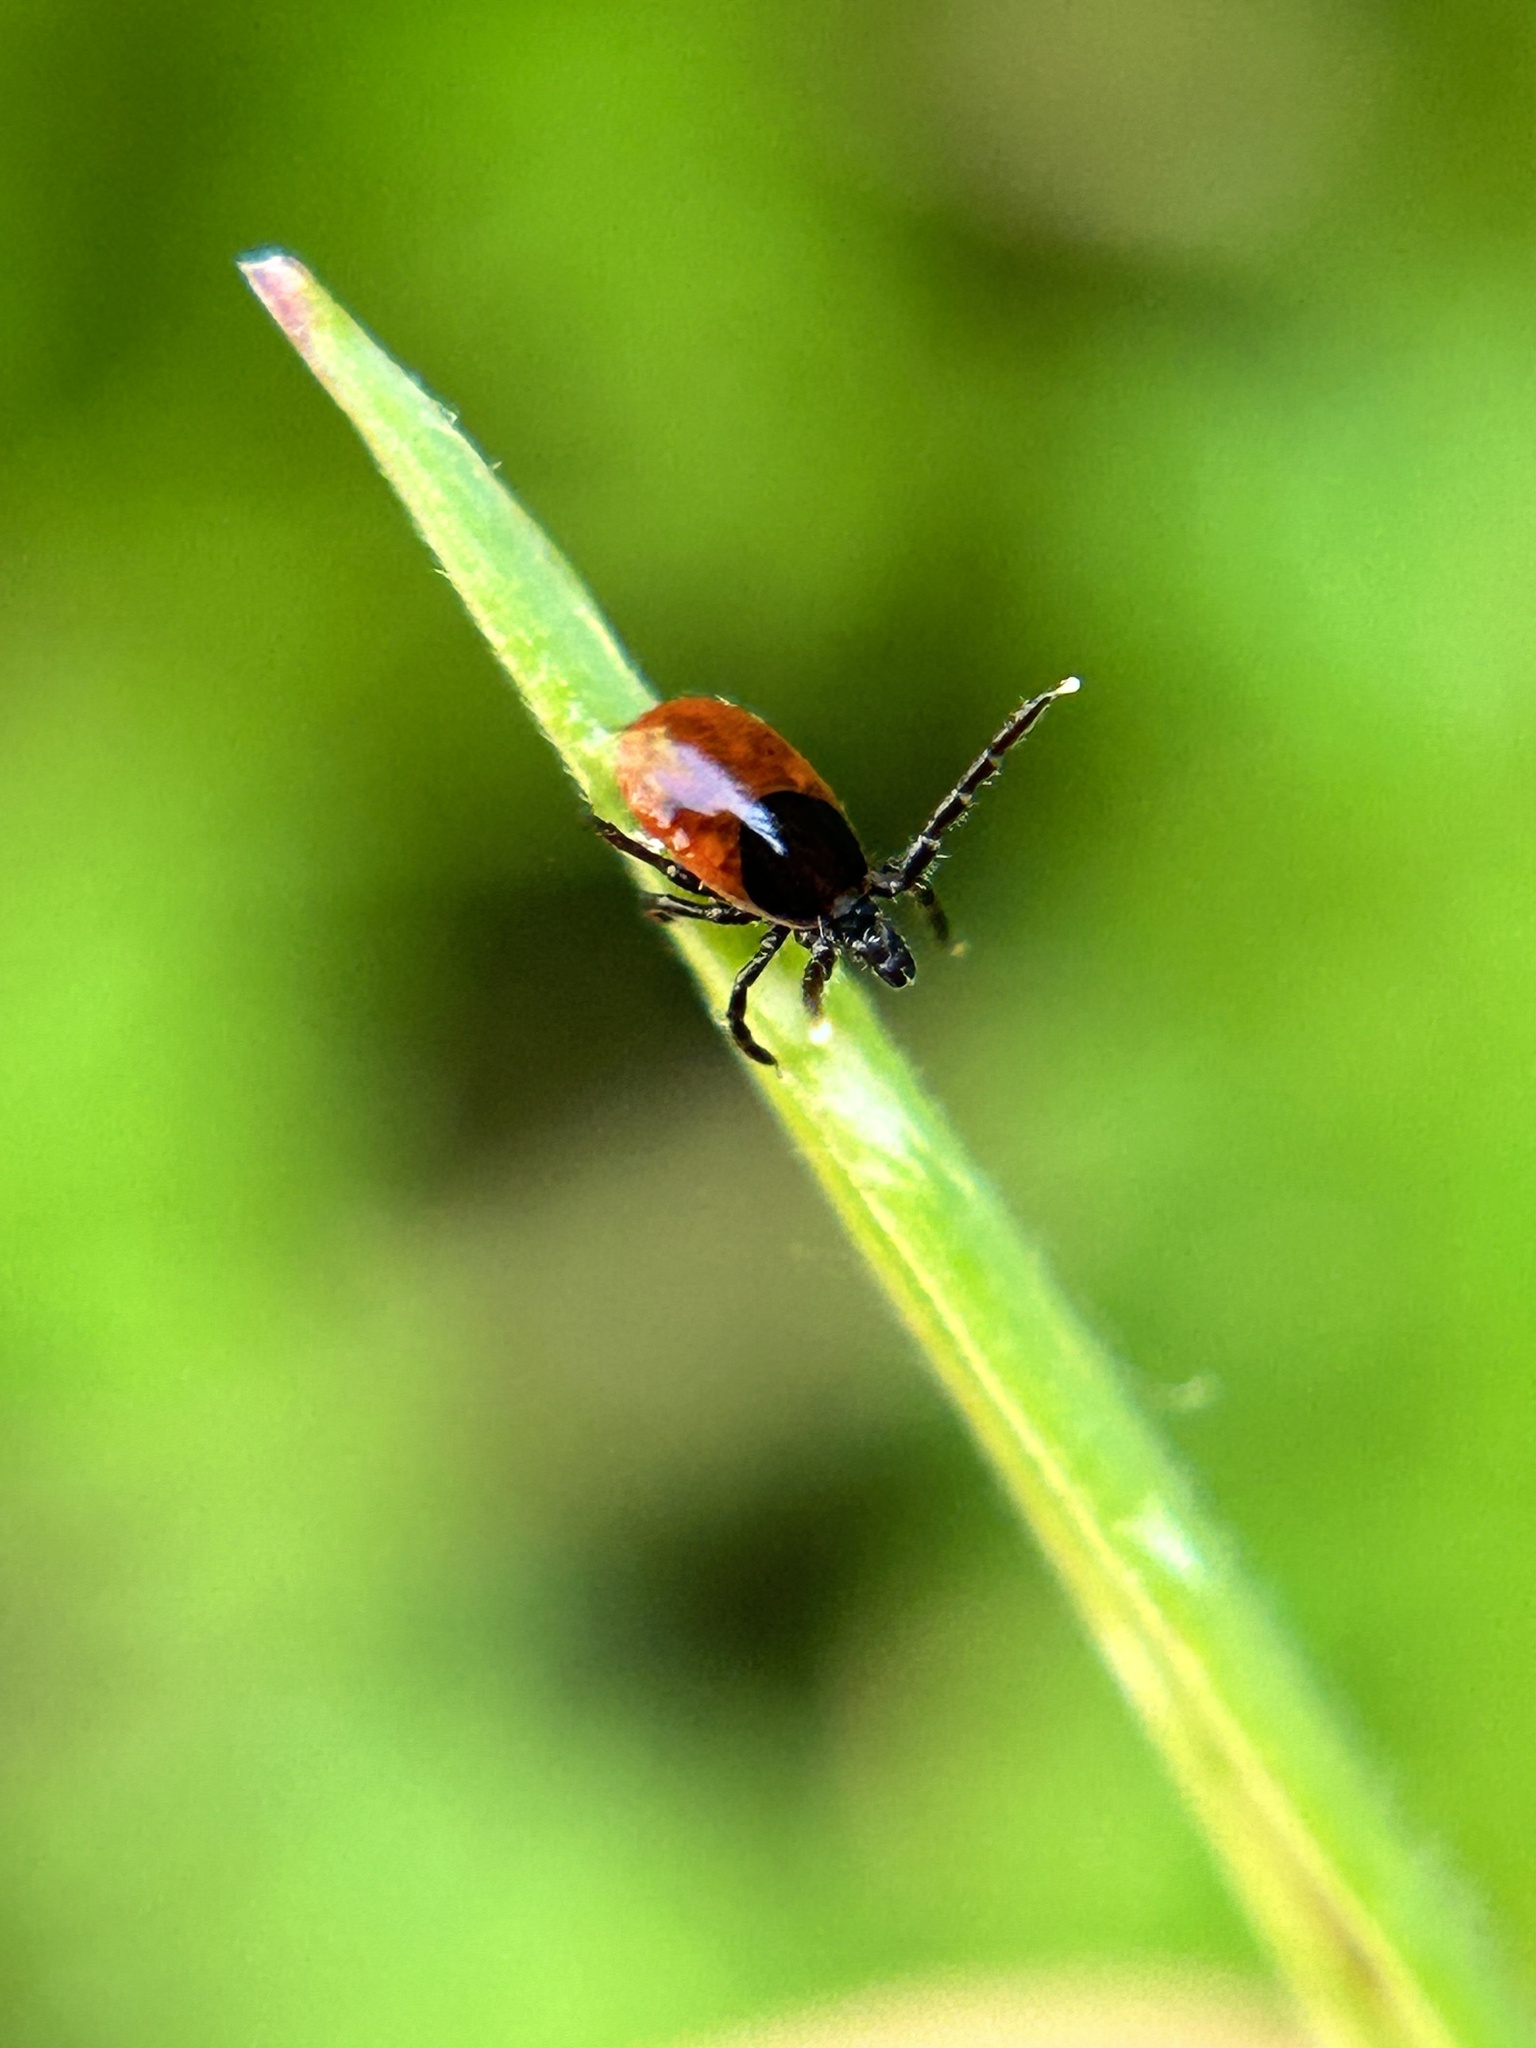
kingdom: Animalia
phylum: Arthropoda
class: Arachnida
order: Ixodida
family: Ixodidae
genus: Ixodes
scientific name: Ixodes pacificus
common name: California black-legged tick
